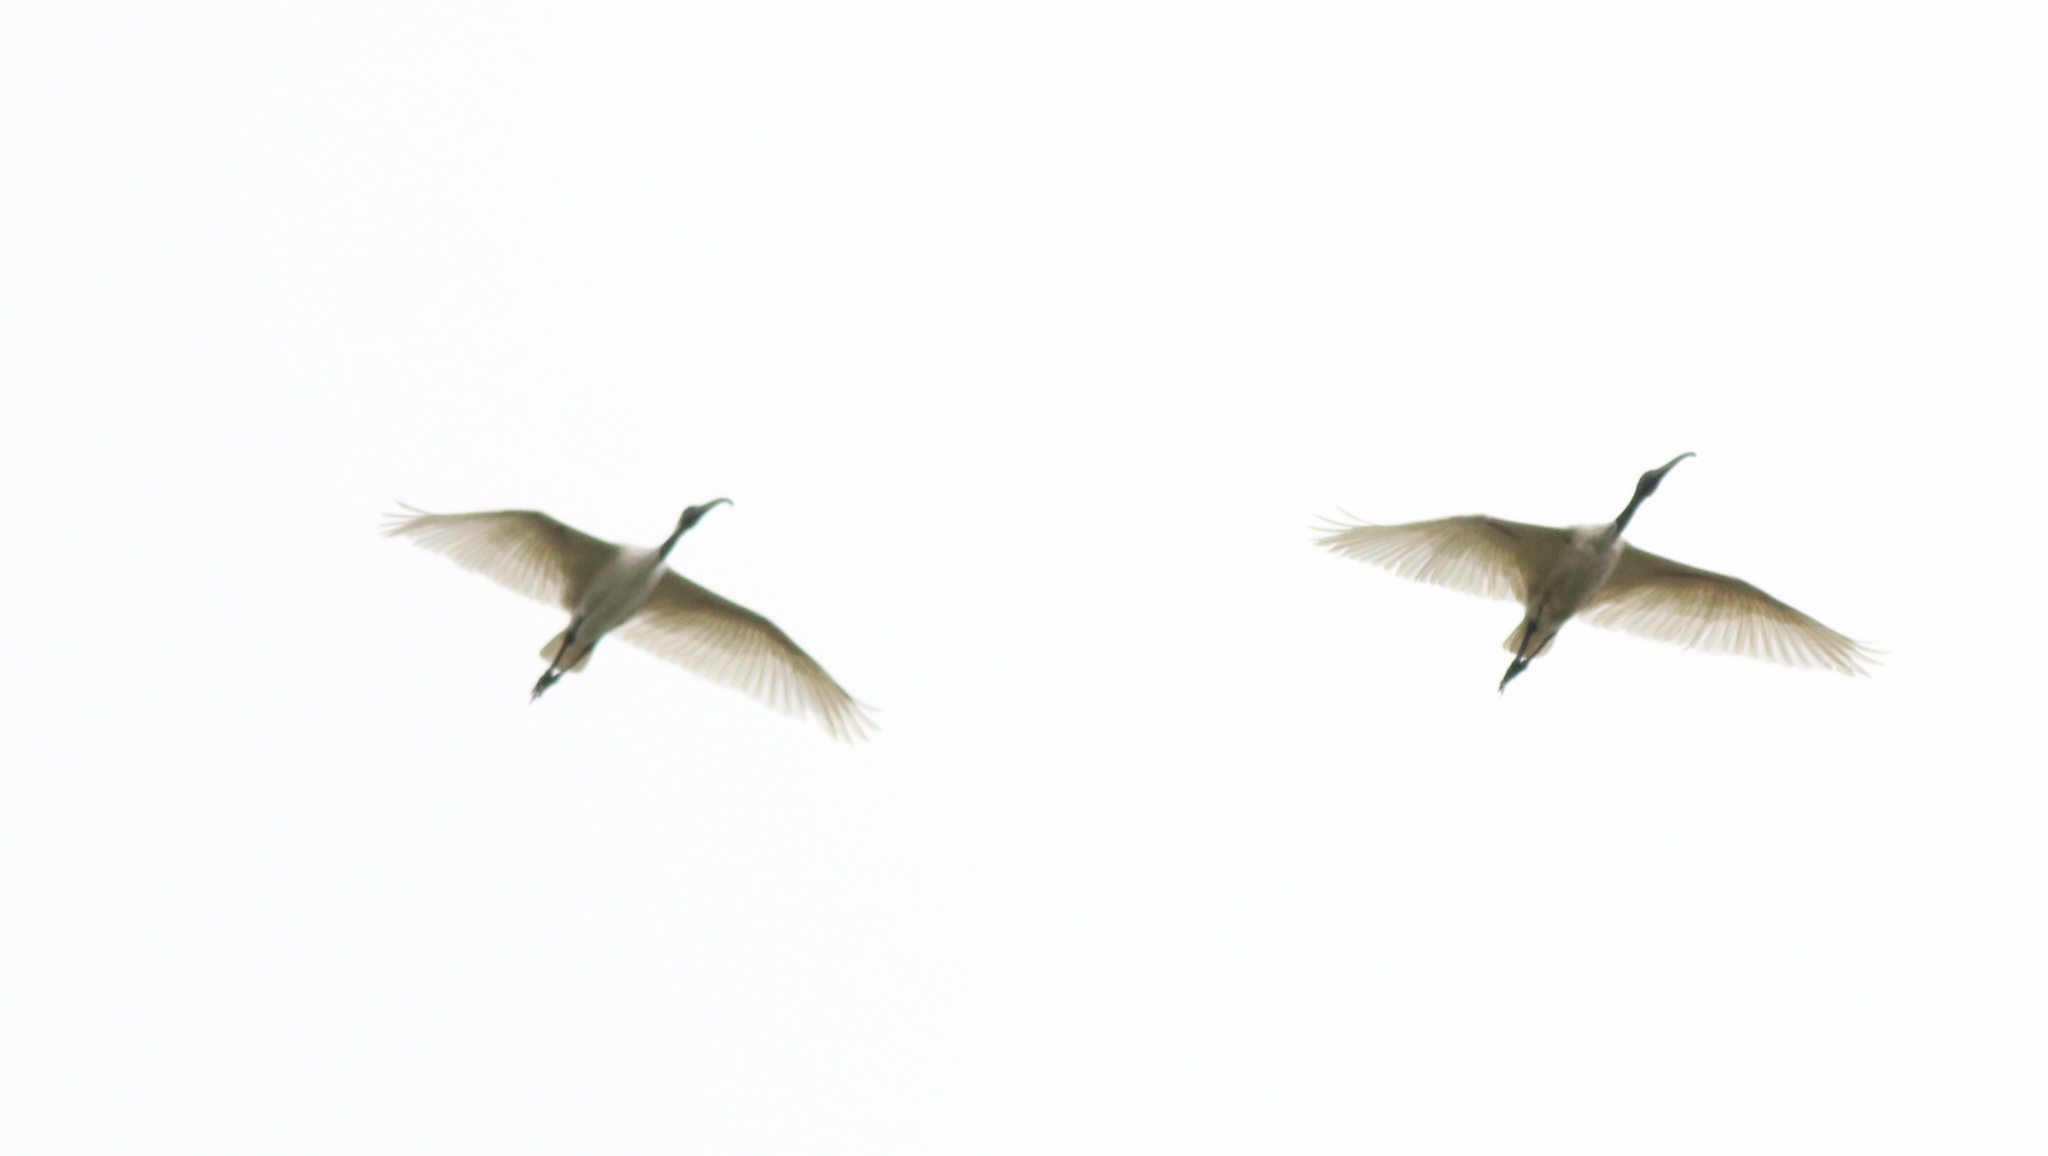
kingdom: Animalia
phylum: Chordata
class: Aves
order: Pelecaniformes
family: Threskiornithidae
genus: Threskiornis
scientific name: Threskiornis melanocephalus
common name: Black-headed ibis
